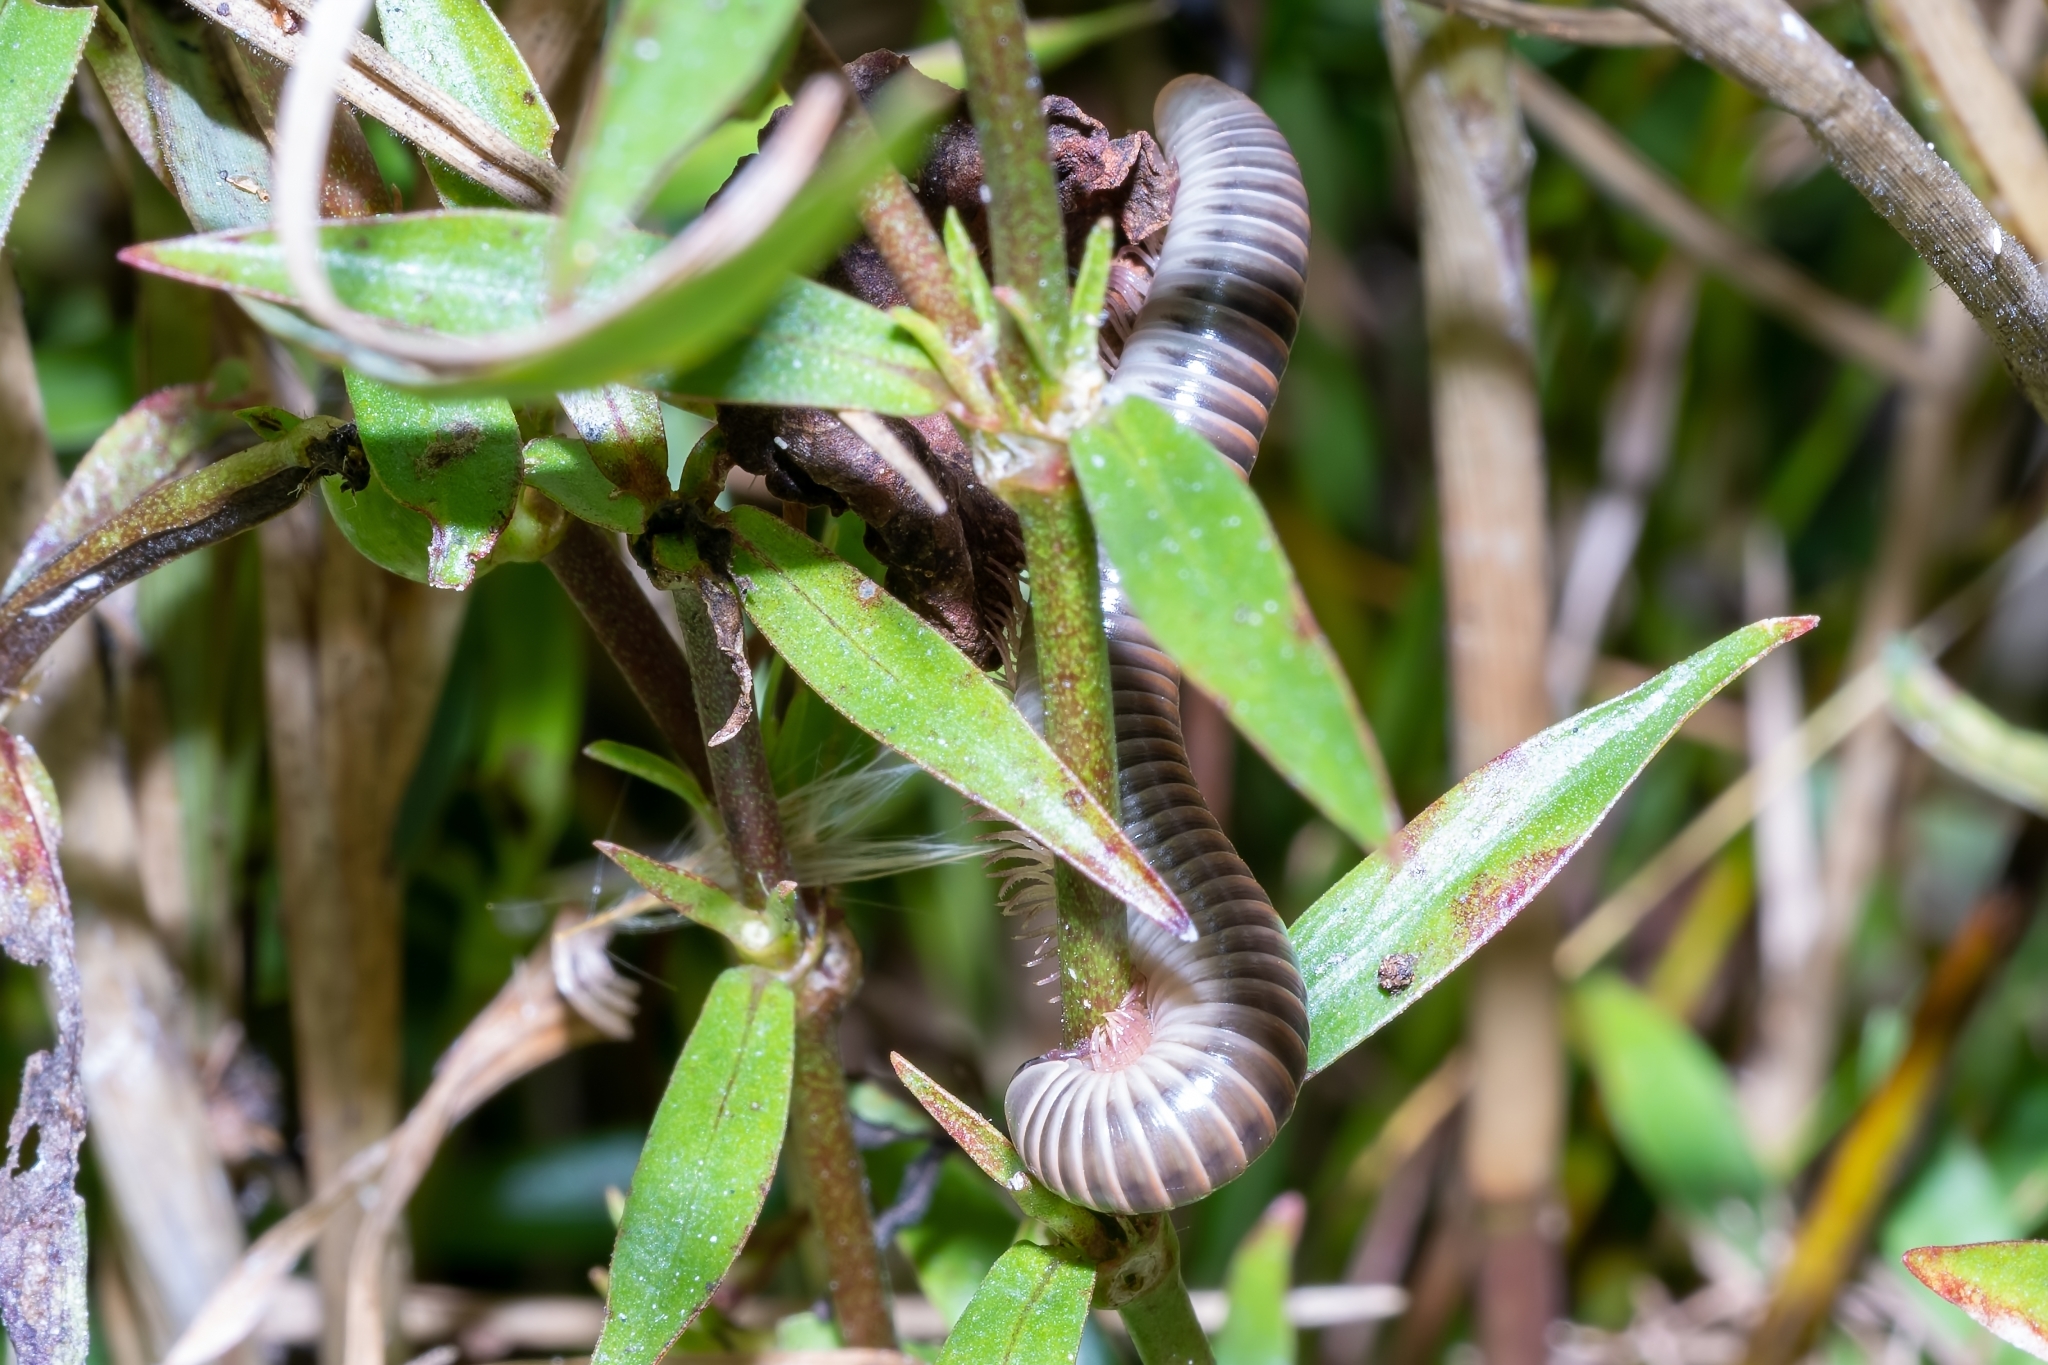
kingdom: Animalia
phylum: Arthropoda
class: Diplopoda
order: Spirobolida
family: Spirobolidae
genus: Chicobolus
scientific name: Chicobolus spinigerus
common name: Florida ivory millipede
